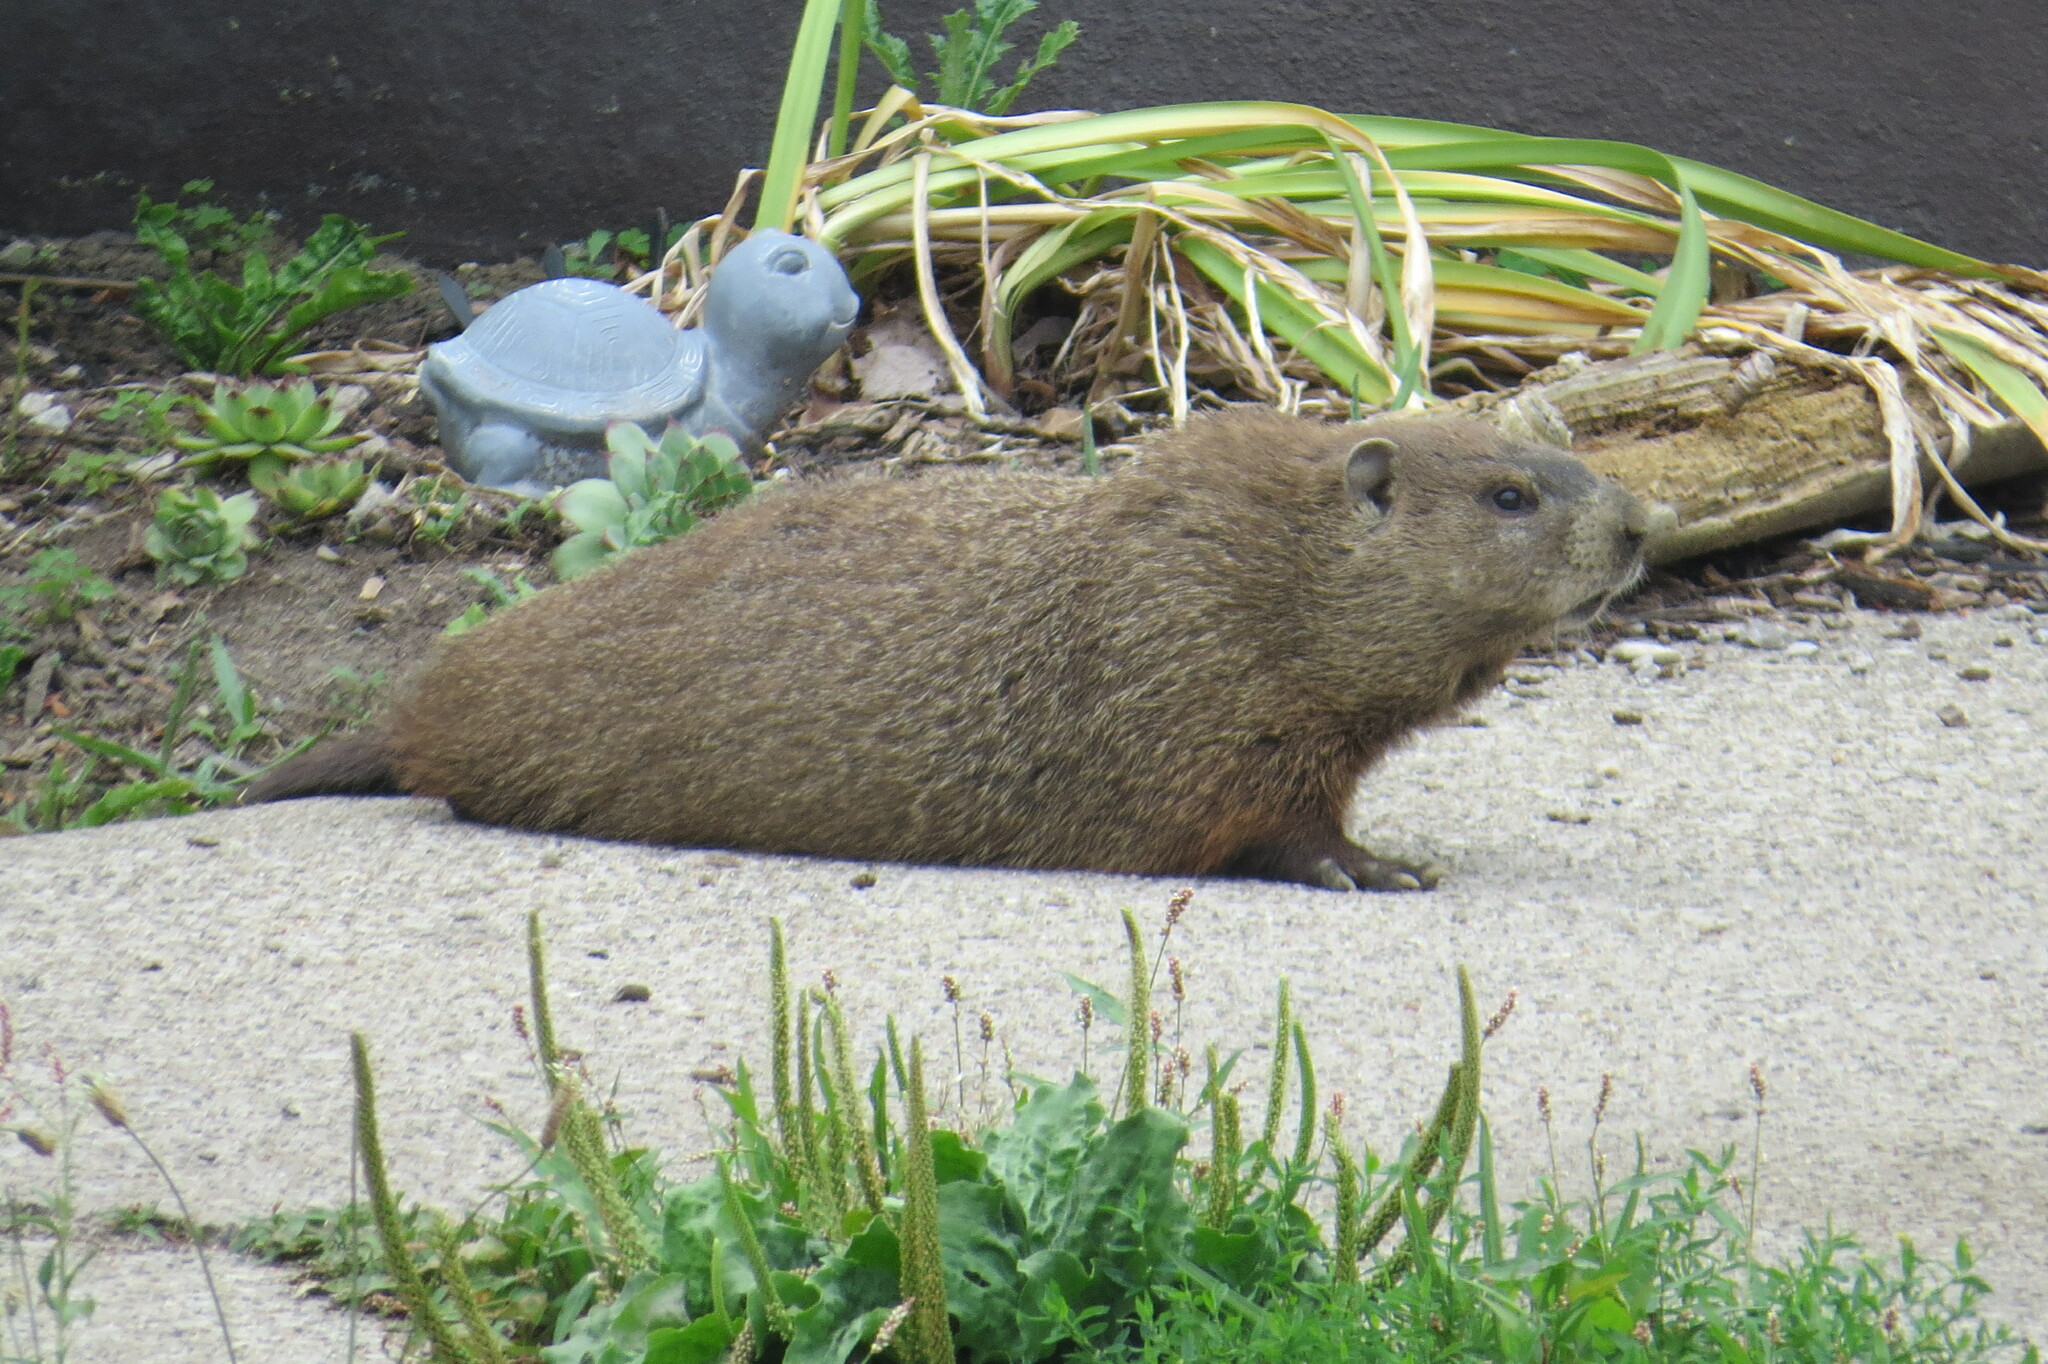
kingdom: Animalia
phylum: Chordata
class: Mammalia
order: Rodentia
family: Sciuridae
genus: Marmota
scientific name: Marmota monax
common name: Groundhog
